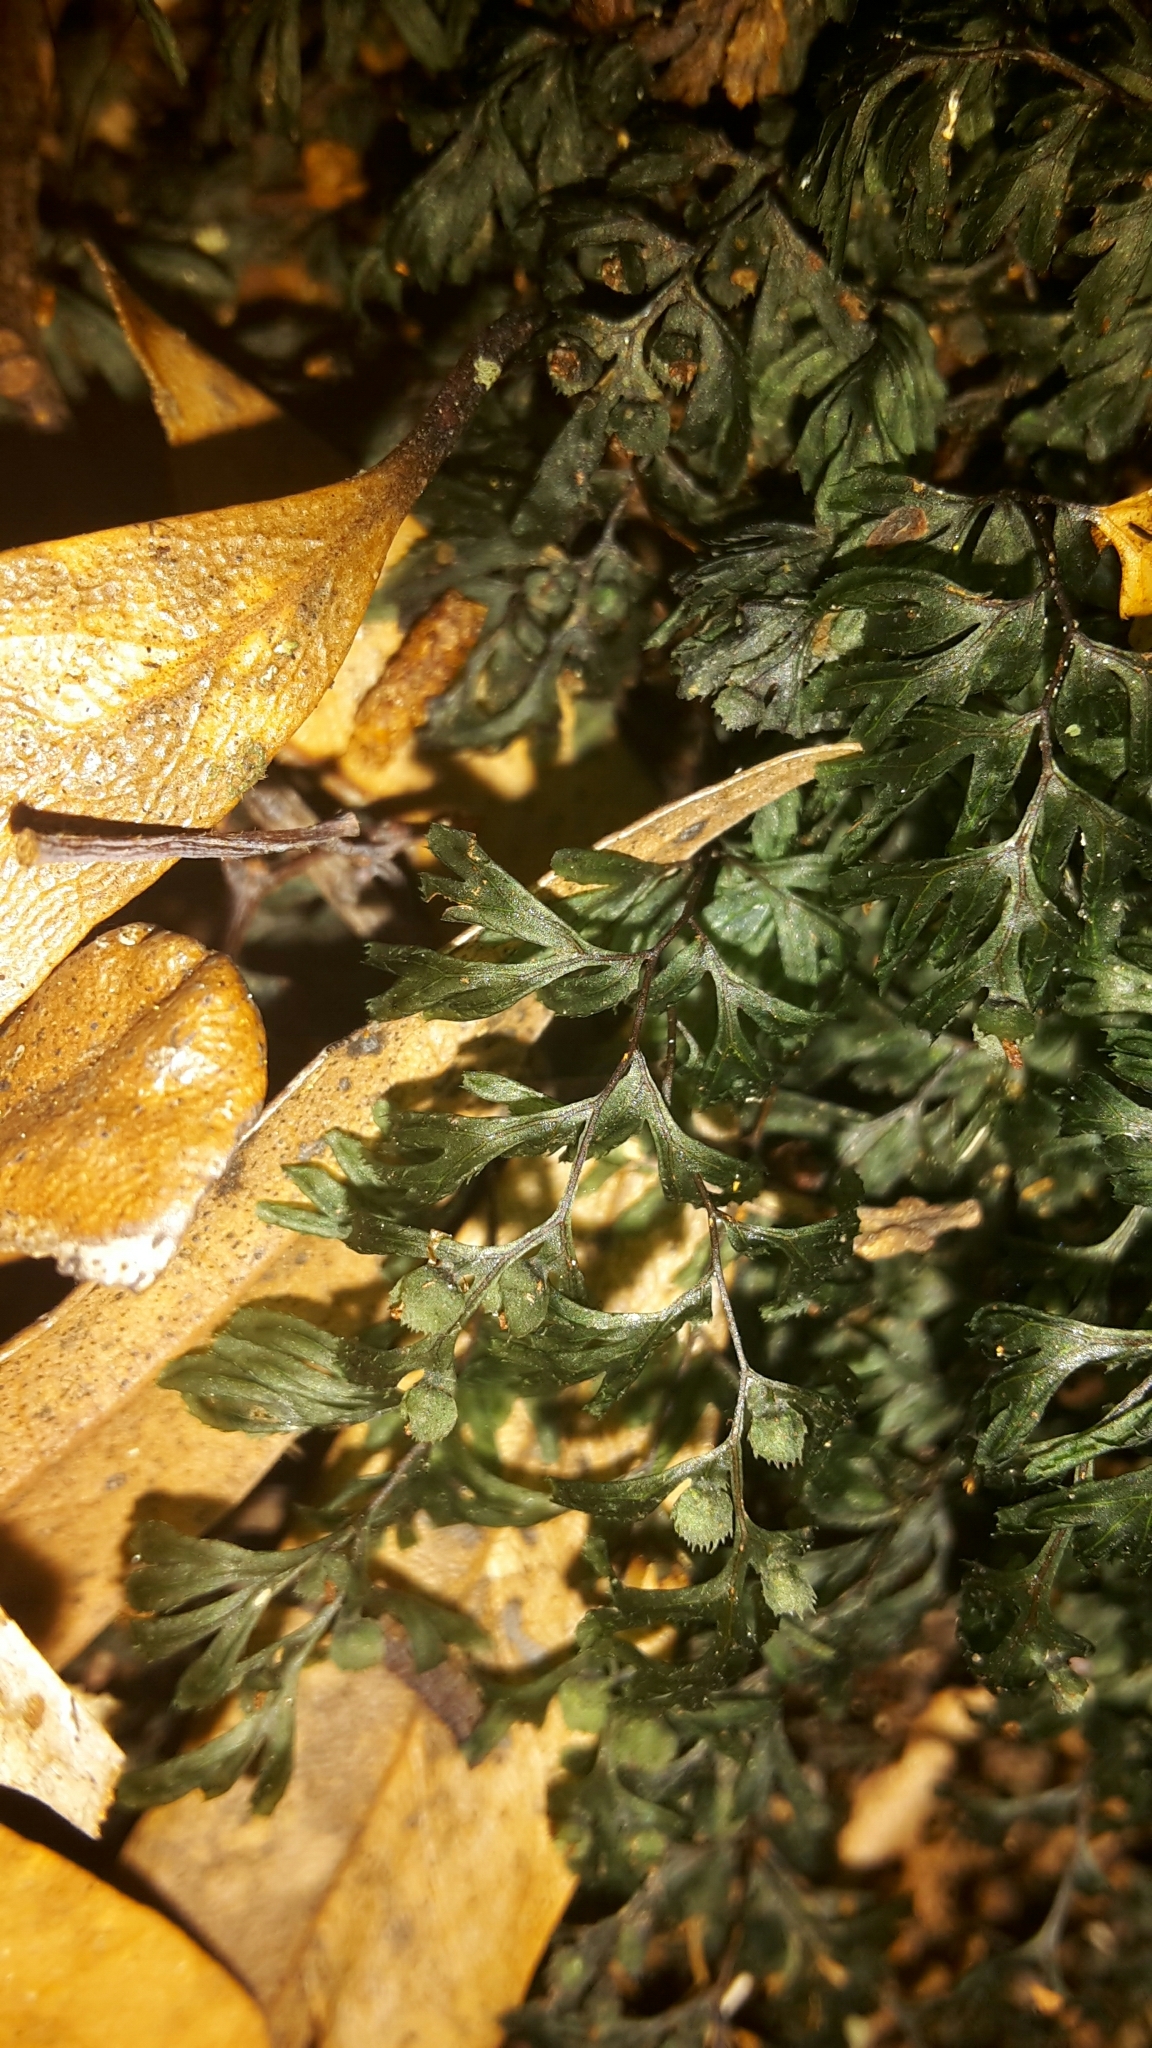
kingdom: Plantae
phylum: Tracheophyta
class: Polypodiopsida
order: Hymenophyllales
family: Hymenophyllaceae
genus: Hymenophyllum
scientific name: Hymenophyllum revolutum
